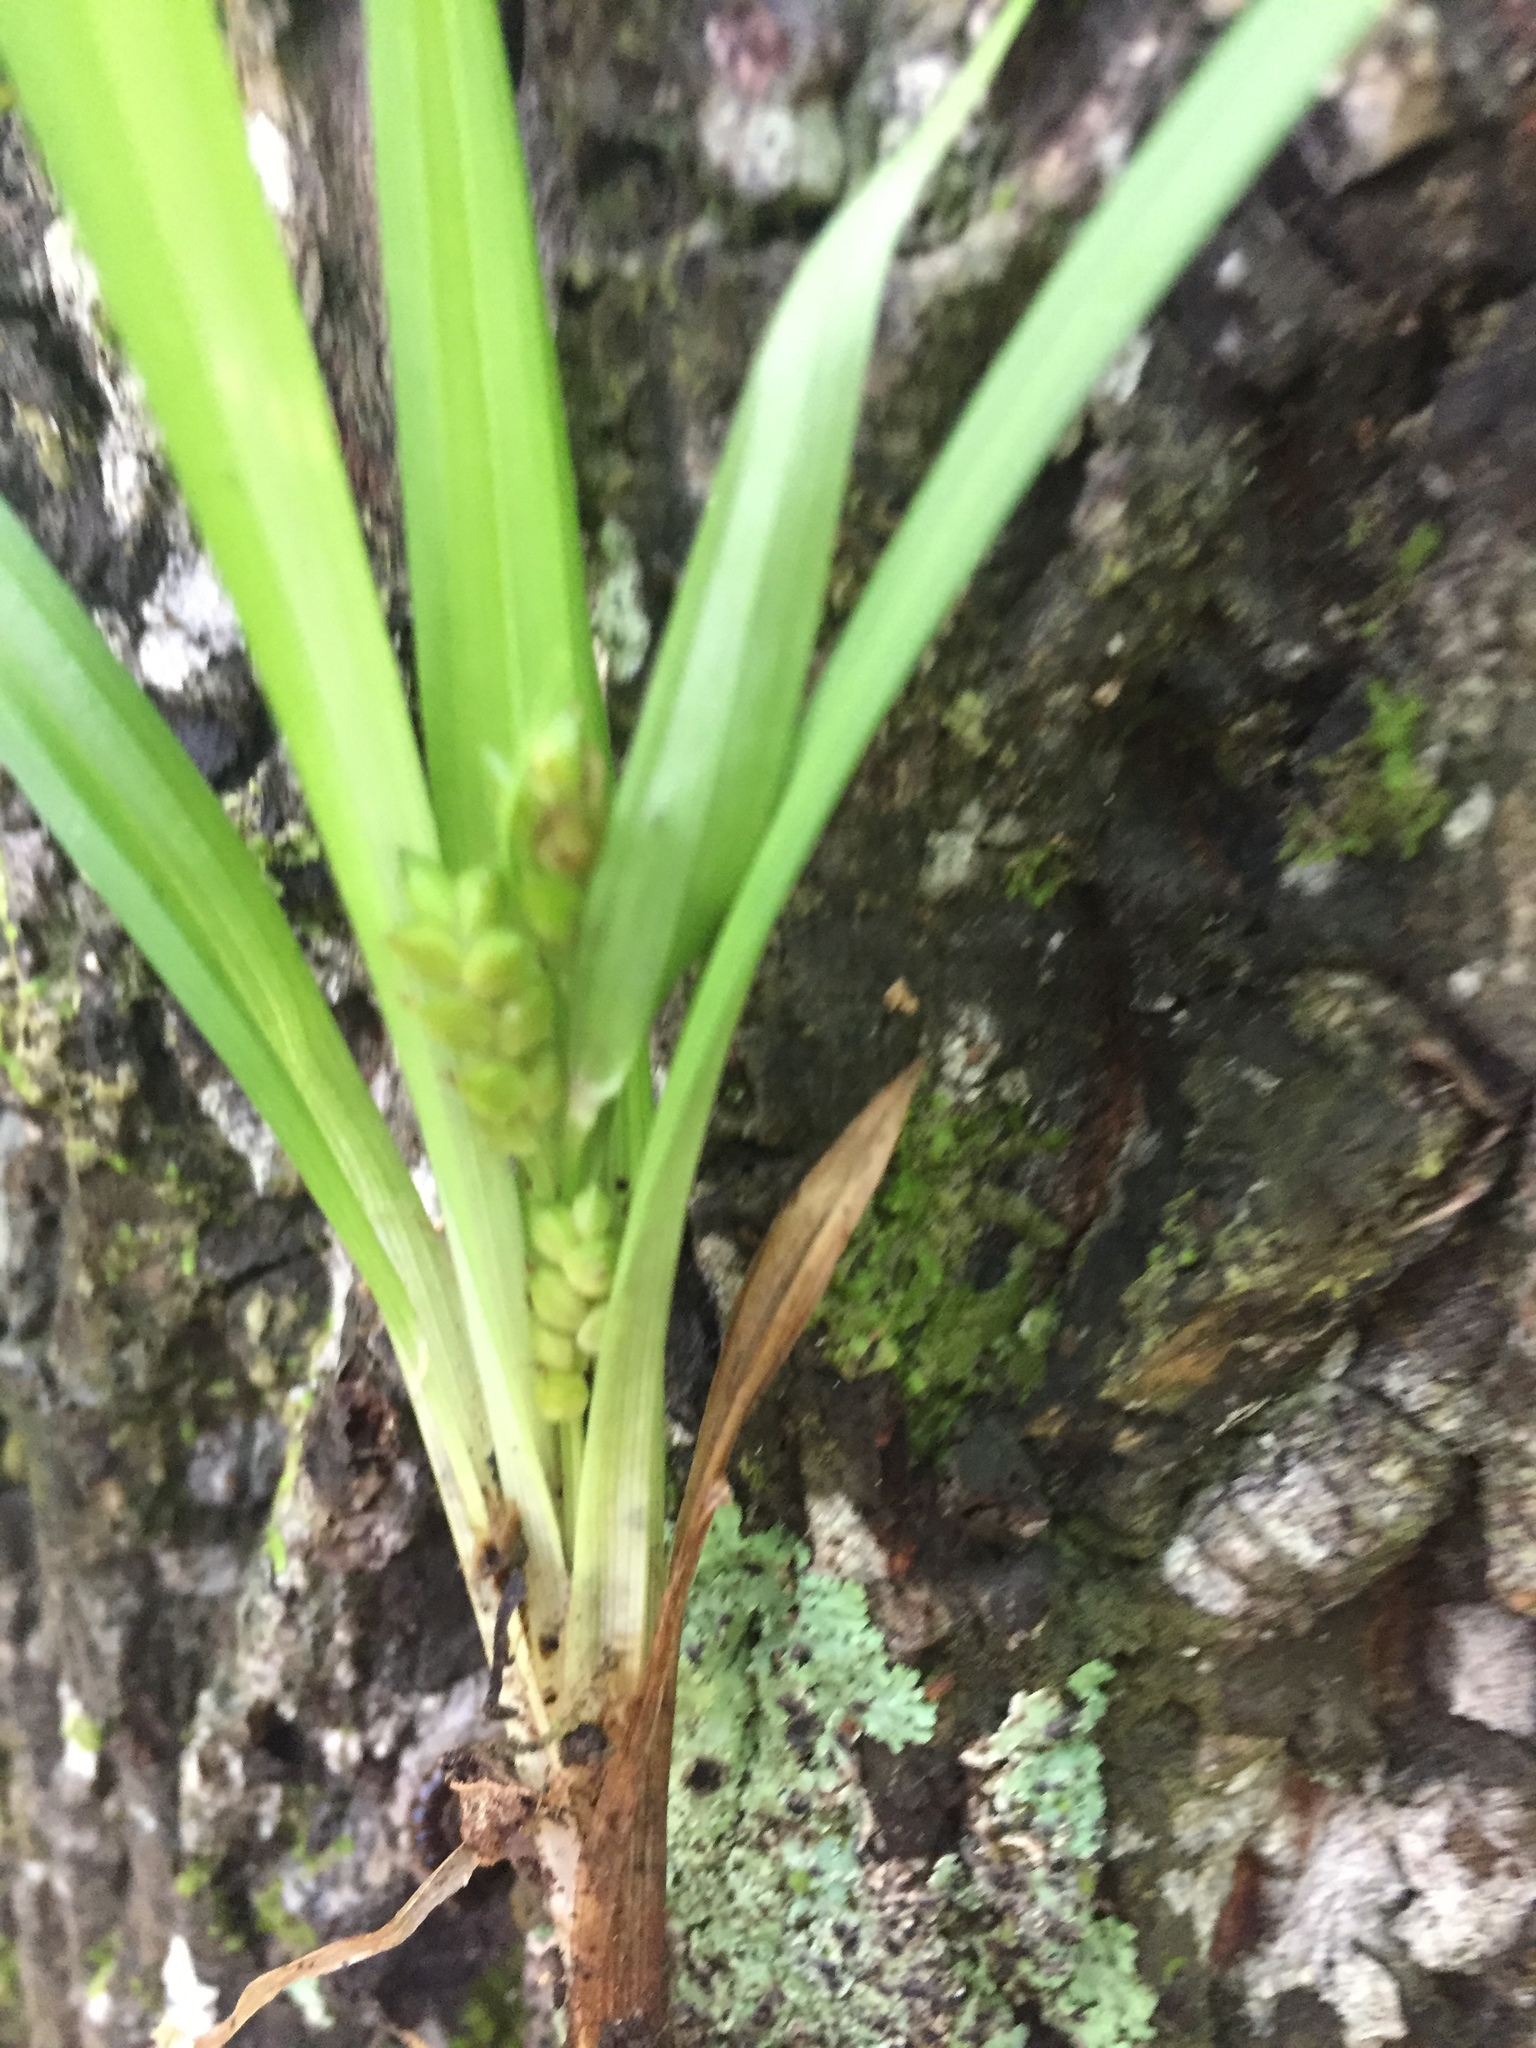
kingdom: Plantae
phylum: Tracheophyta
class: Liliopsida
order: Poales
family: Cyperaceae
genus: Carex
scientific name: Carex abscondita
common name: Thicket sedge
